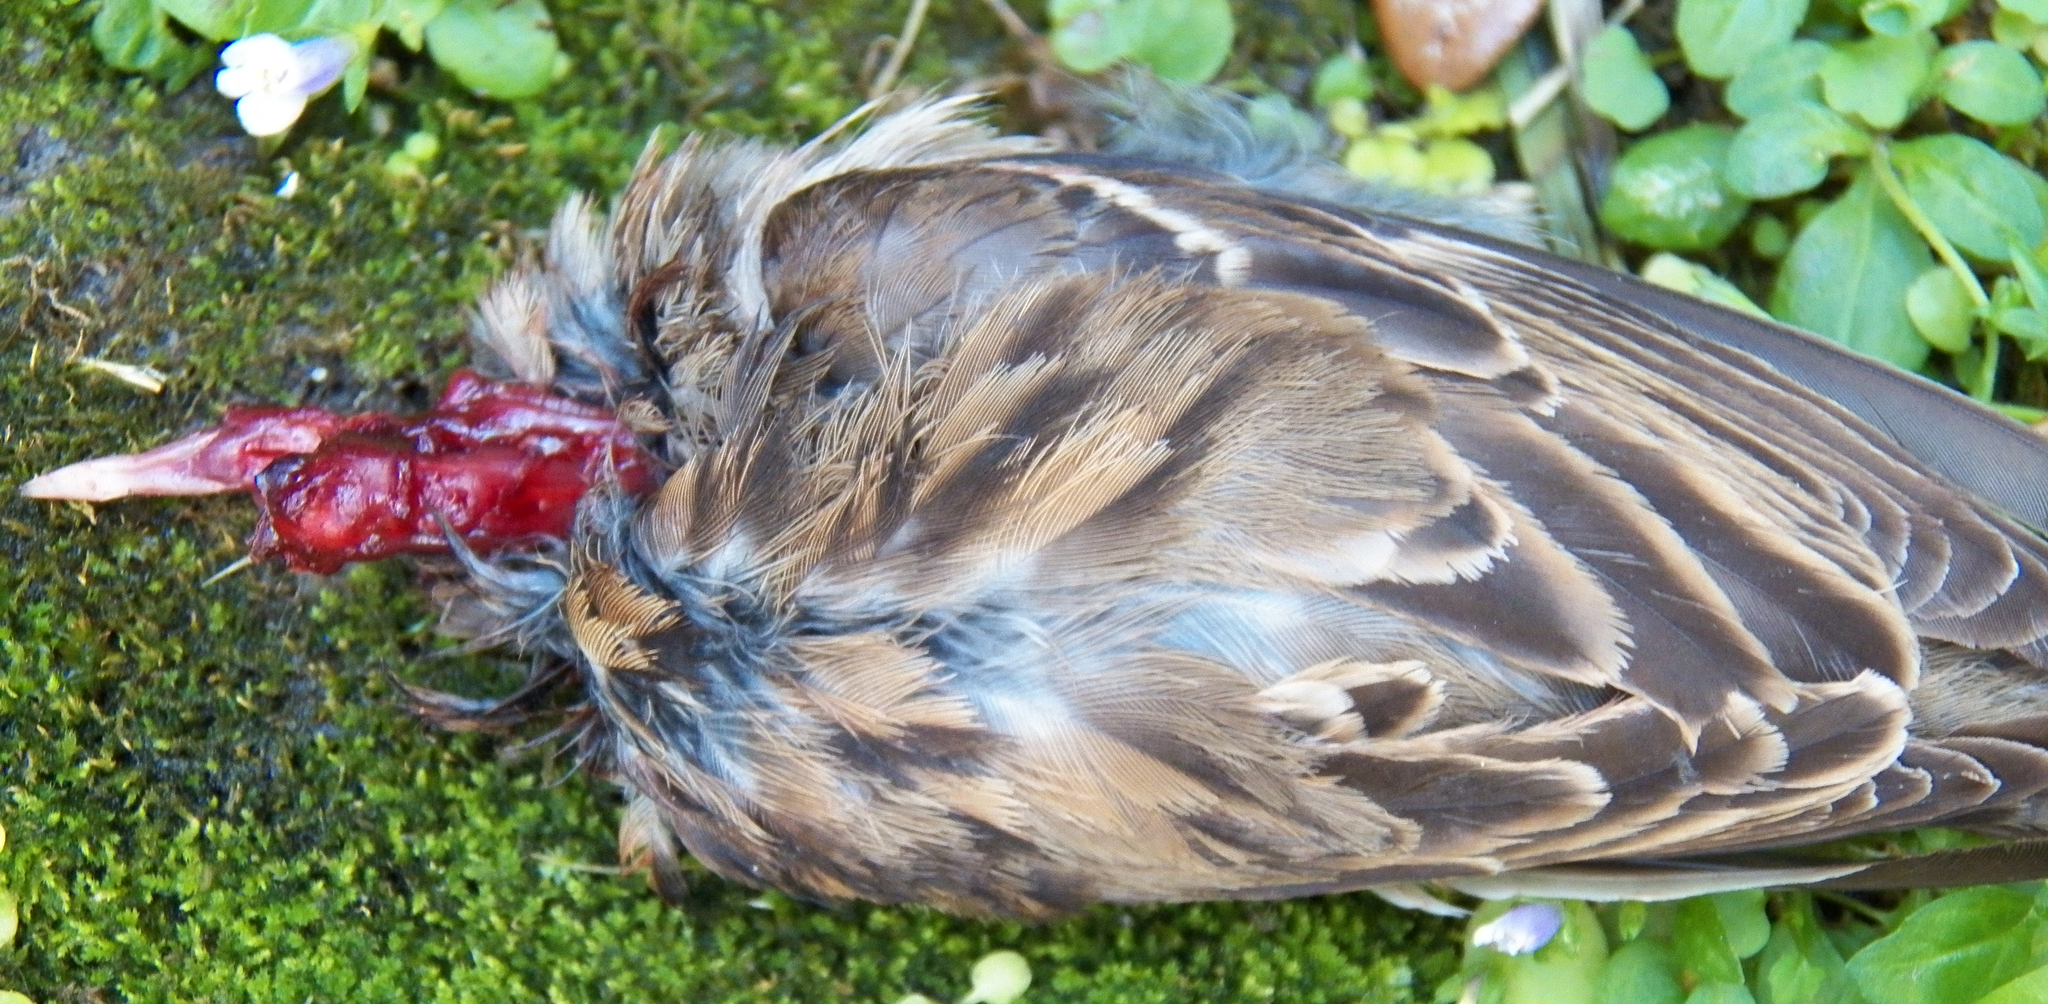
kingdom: Animalia
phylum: Chordata
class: Aves
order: Passeriformes
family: Passeridae
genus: Passer
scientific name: Passer domesticus
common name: House sparrow
